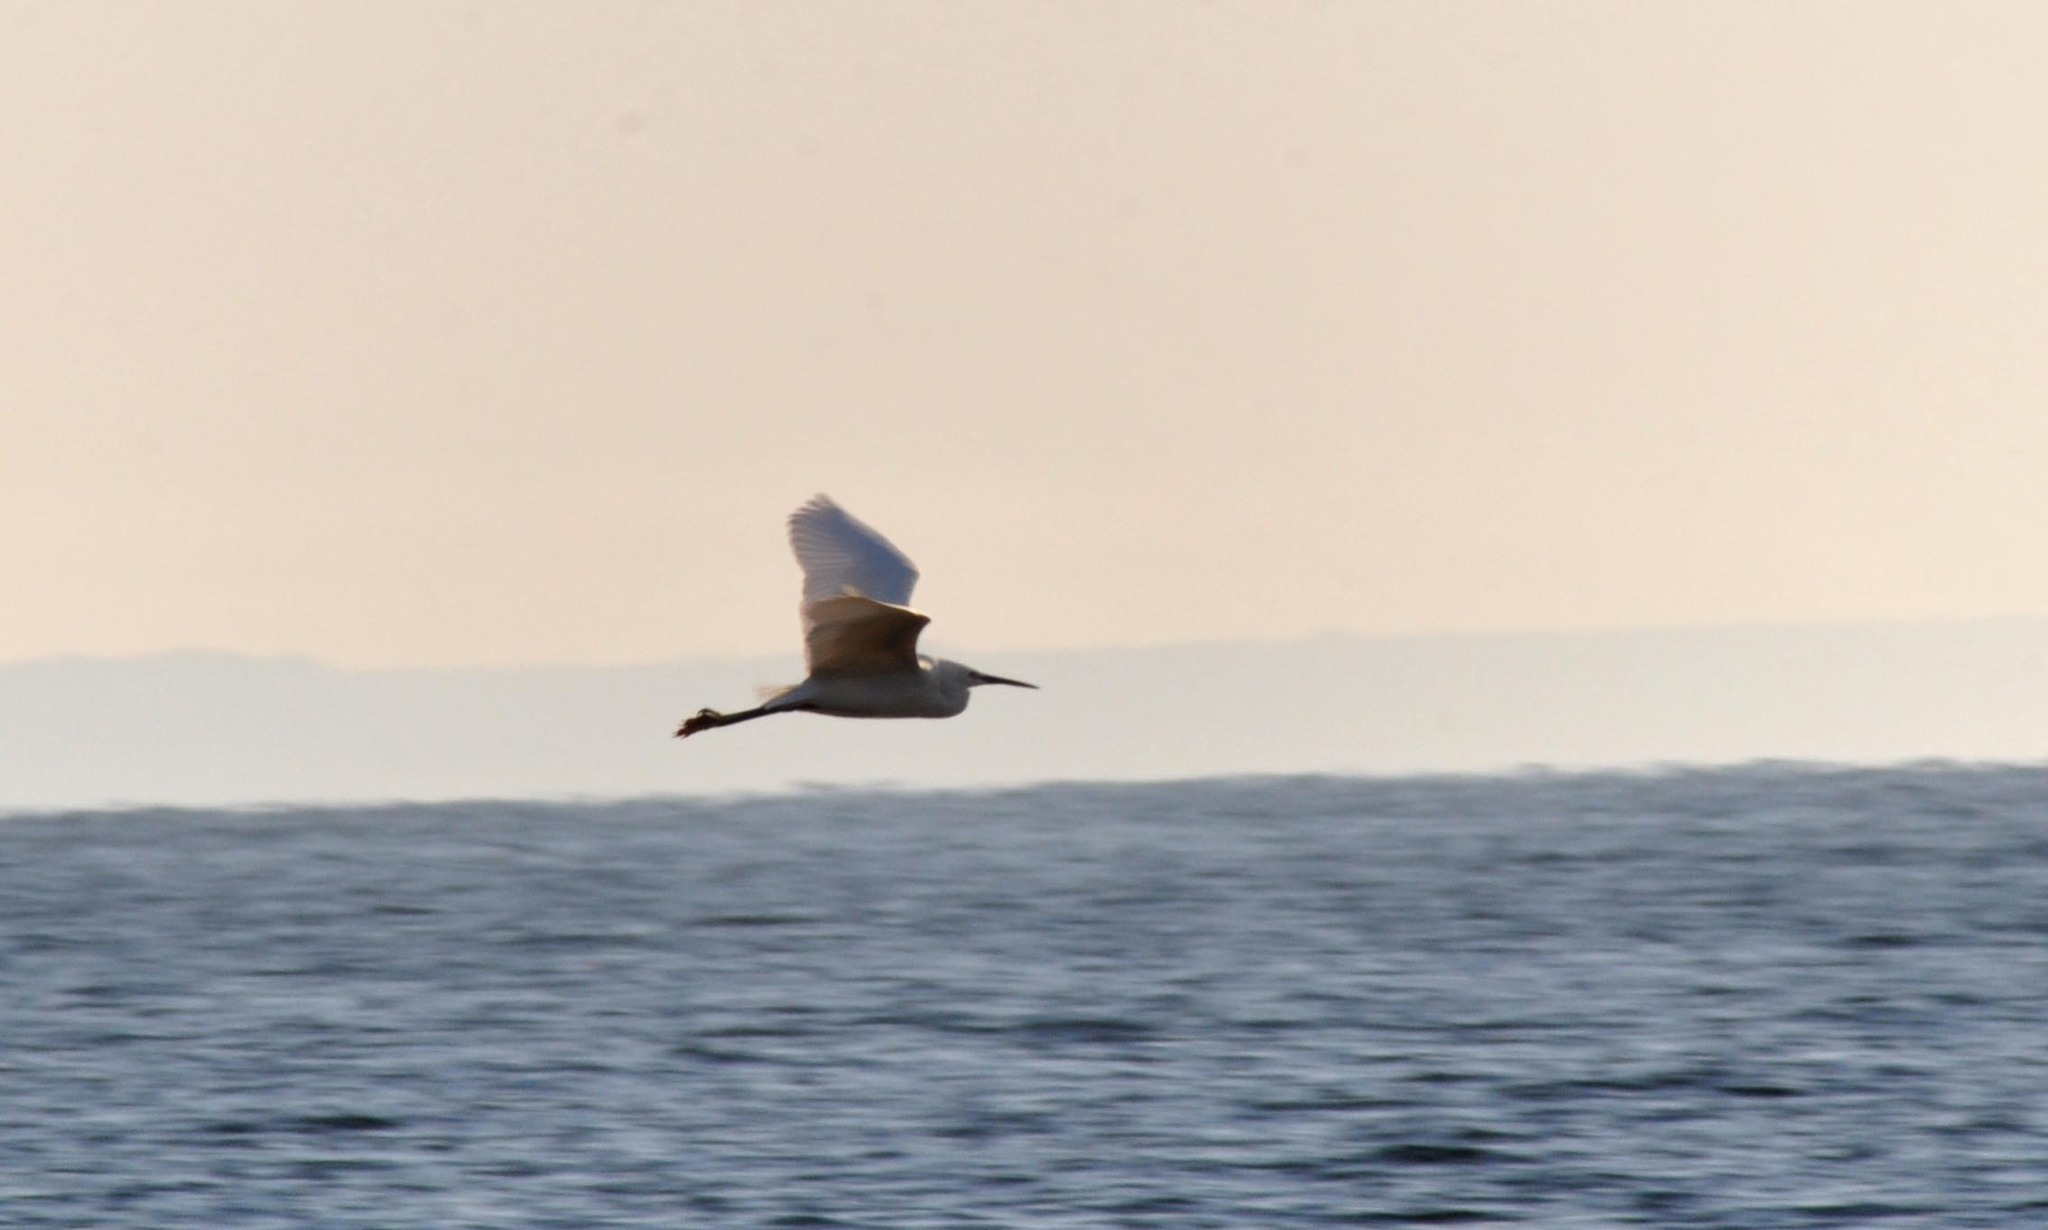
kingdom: Animalia
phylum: Chordata
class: Aves
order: Pelecaniformes
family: Ardeidae
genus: Egretta
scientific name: Egretta garzetta
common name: Little egret
